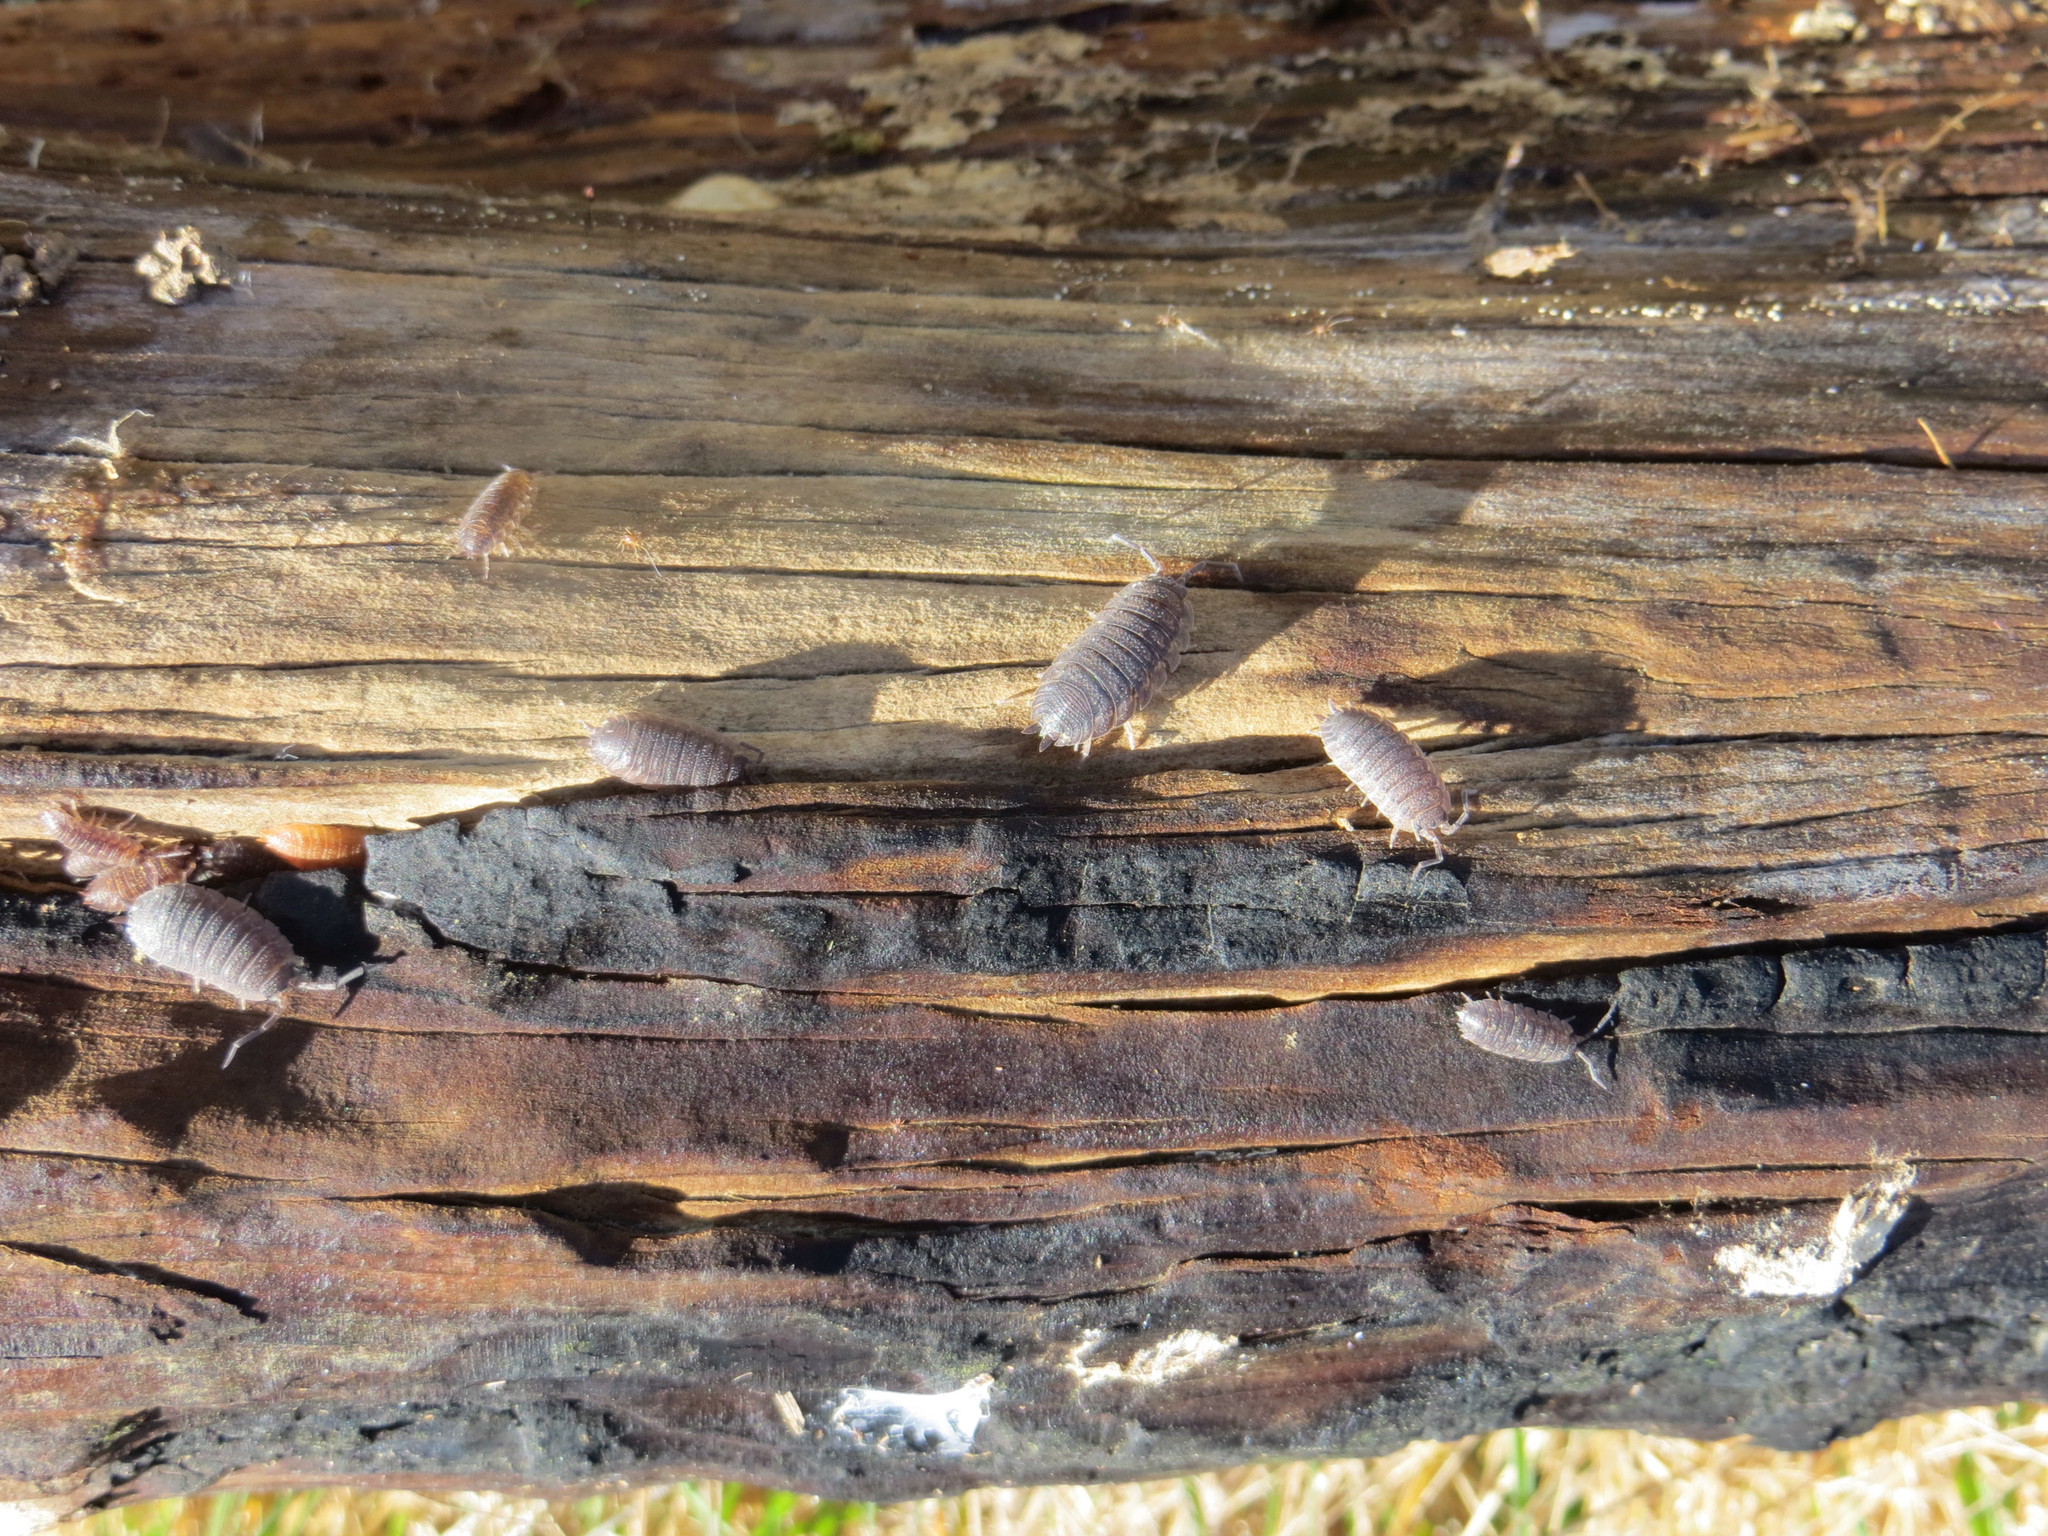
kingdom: Animalia
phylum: Arthropoda
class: Malacostraca
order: Isopoda
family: Porcellionidae
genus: Porcellio
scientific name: Porcellio scaber
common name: Common rough woodlouse
